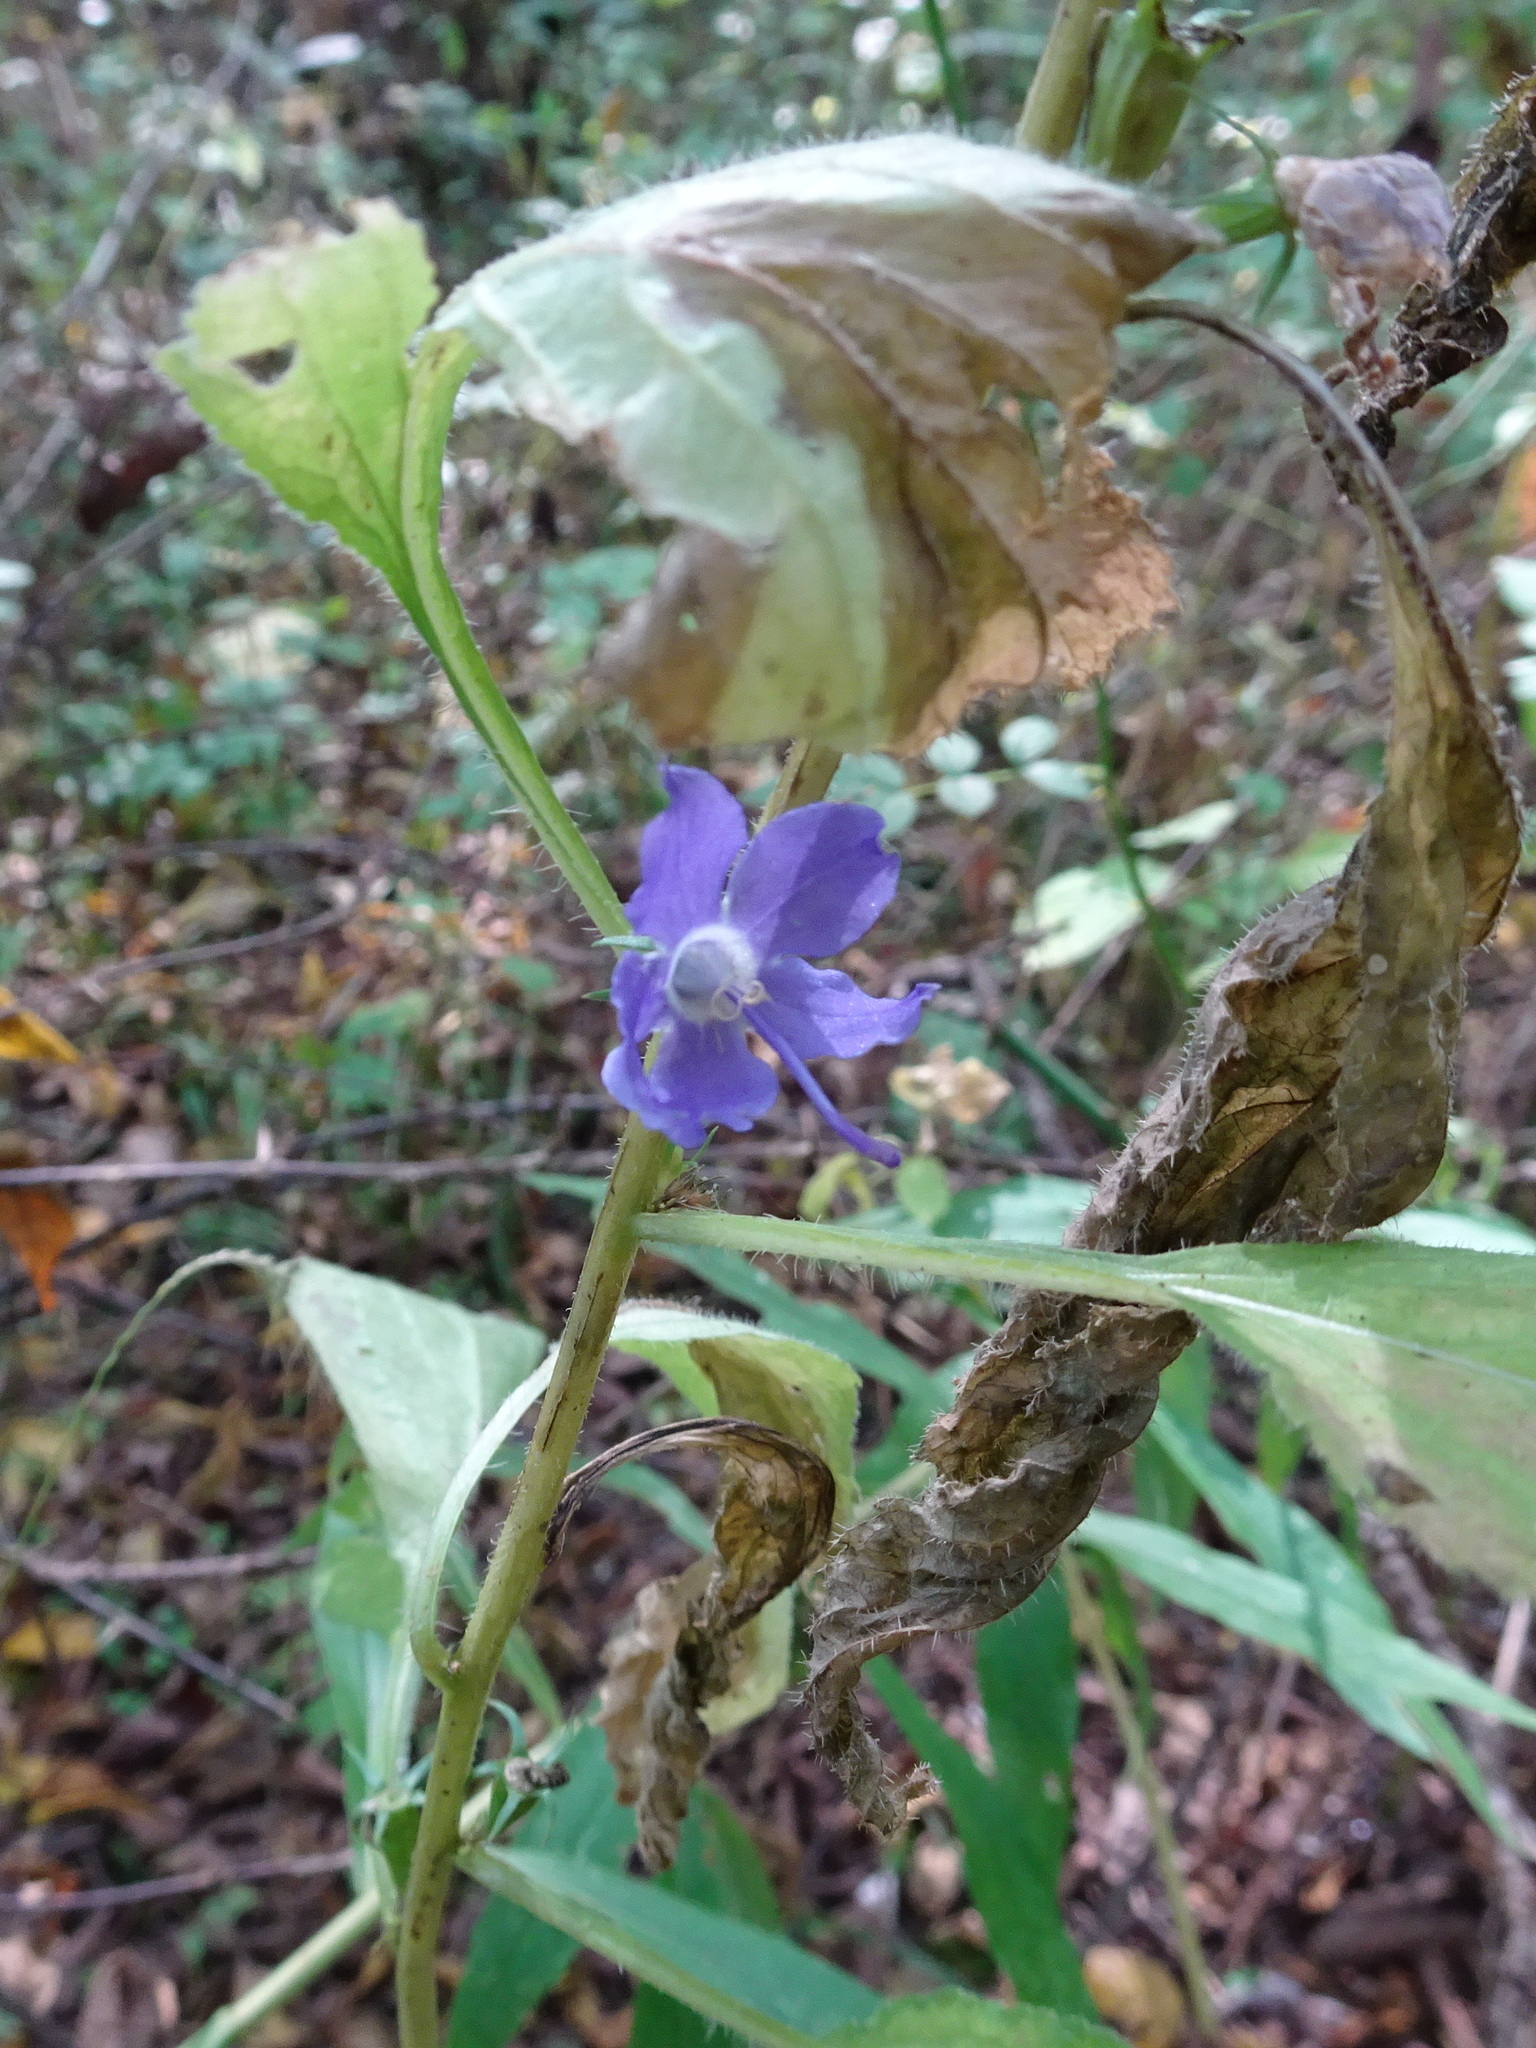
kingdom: Plantae
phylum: Tracheophyta
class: Magnoliopsida
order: Asterales
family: Campanulaceae
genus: Campanulastrum
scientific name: Campanulastrum americanum
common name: American bellflower
